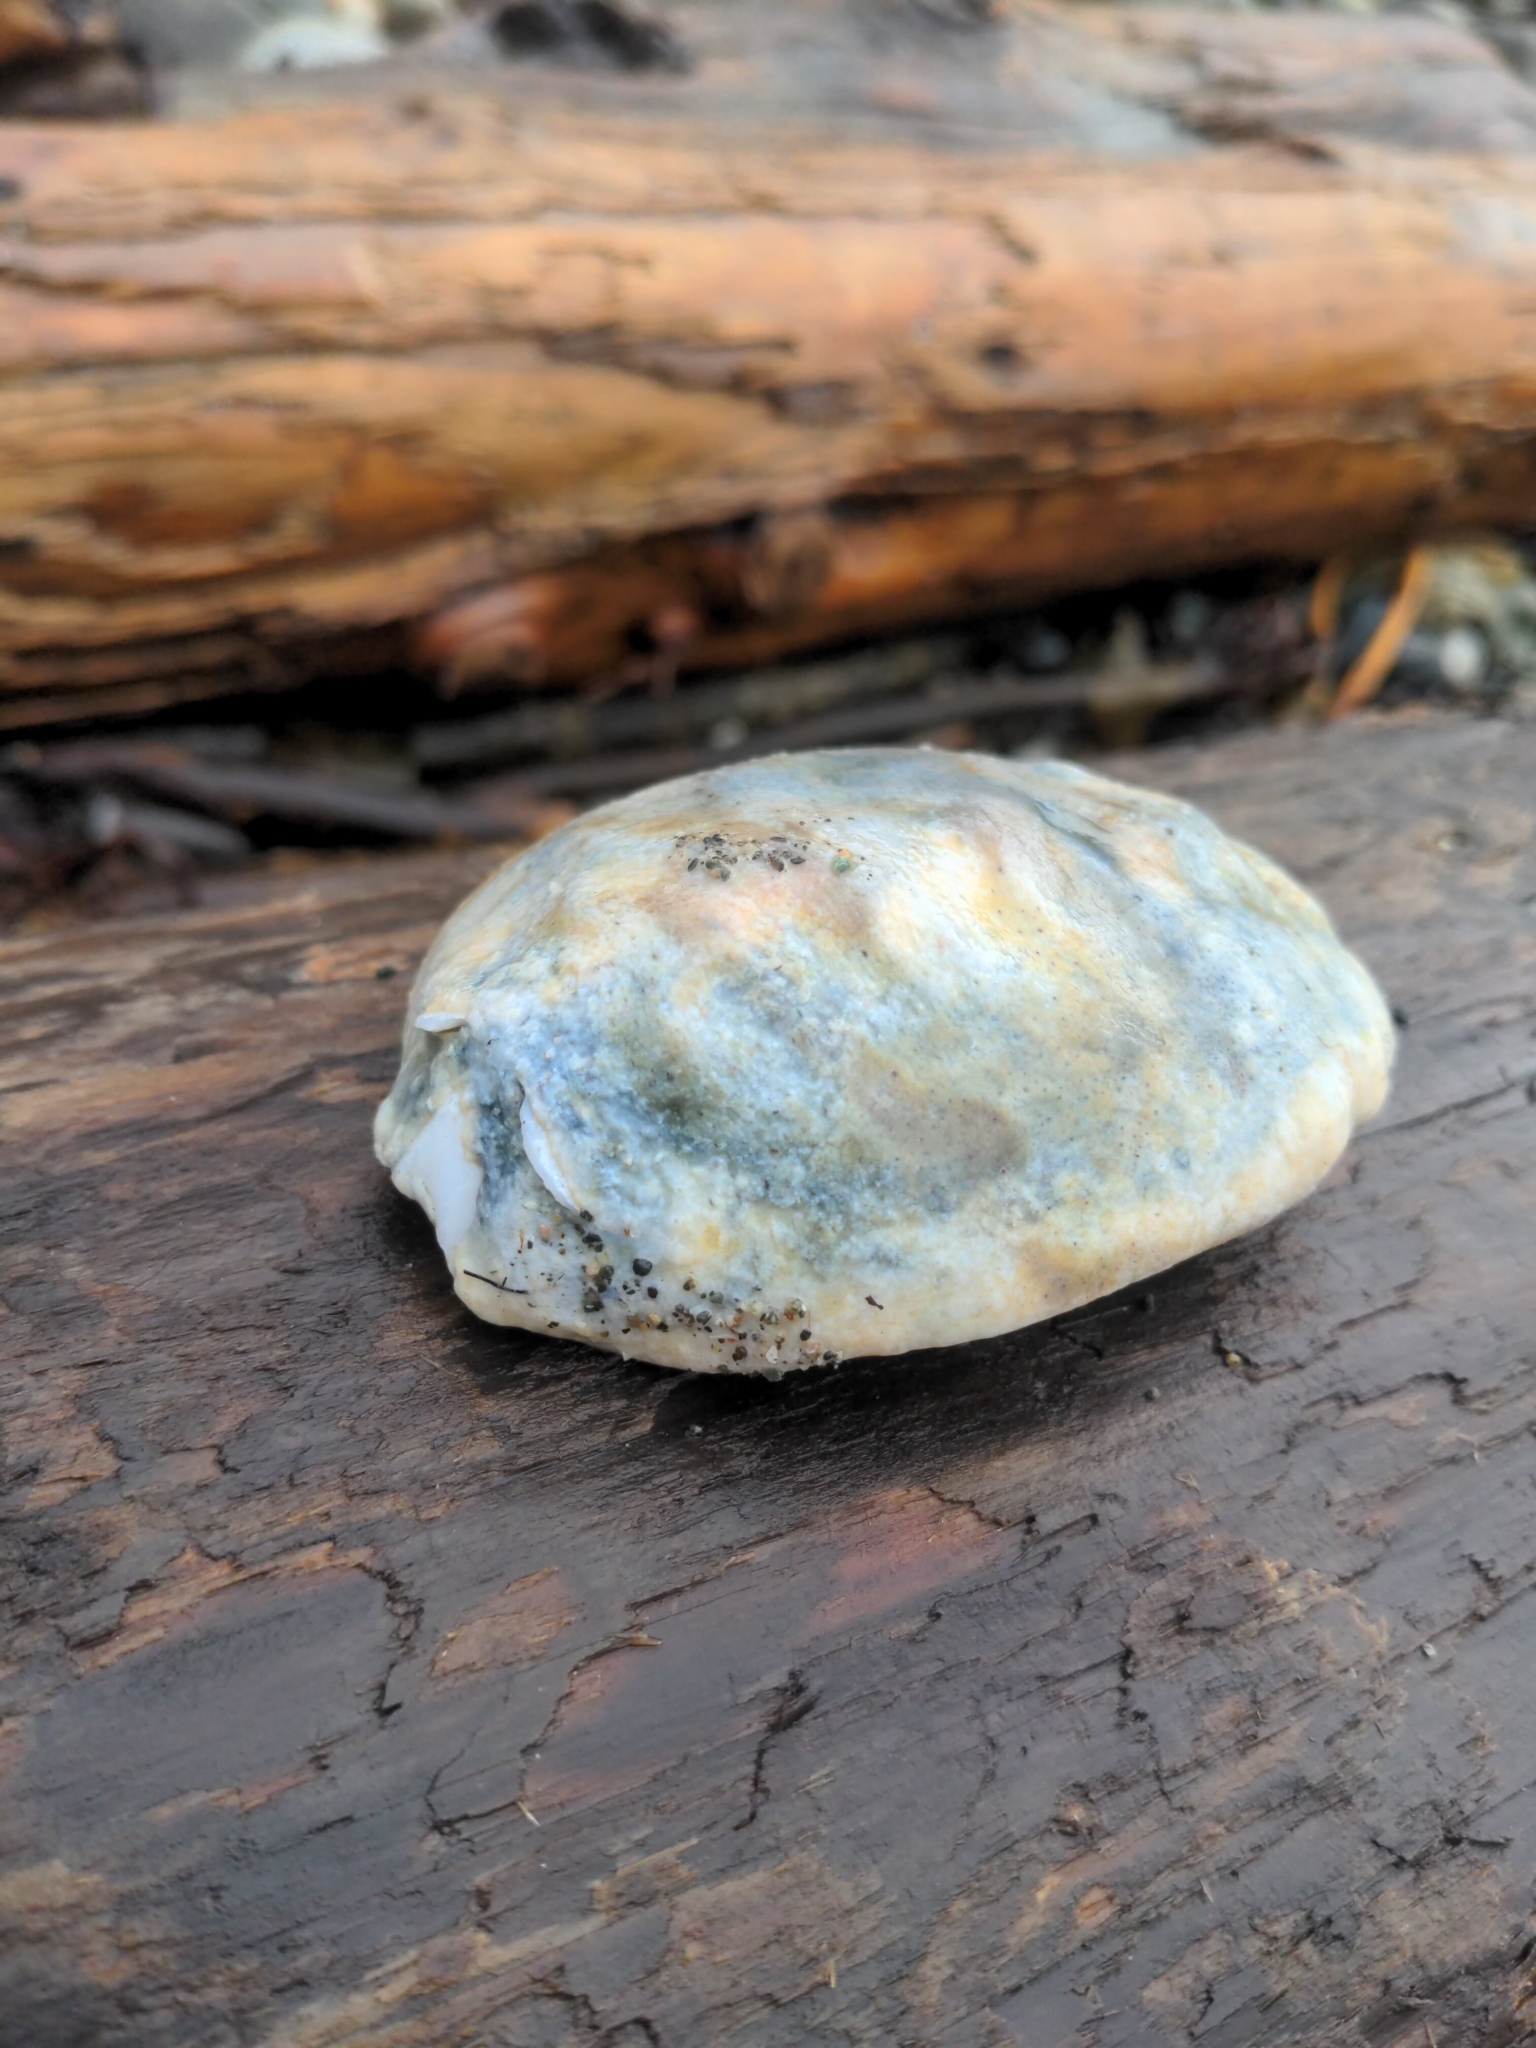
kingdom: Animalia
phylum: Mollusca
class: Polyplacophora
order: Chitonida
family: Acanthochitonidae
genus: Cryptochiton
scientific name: Cryptochiton stelleri
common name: Giant pacific chiton
